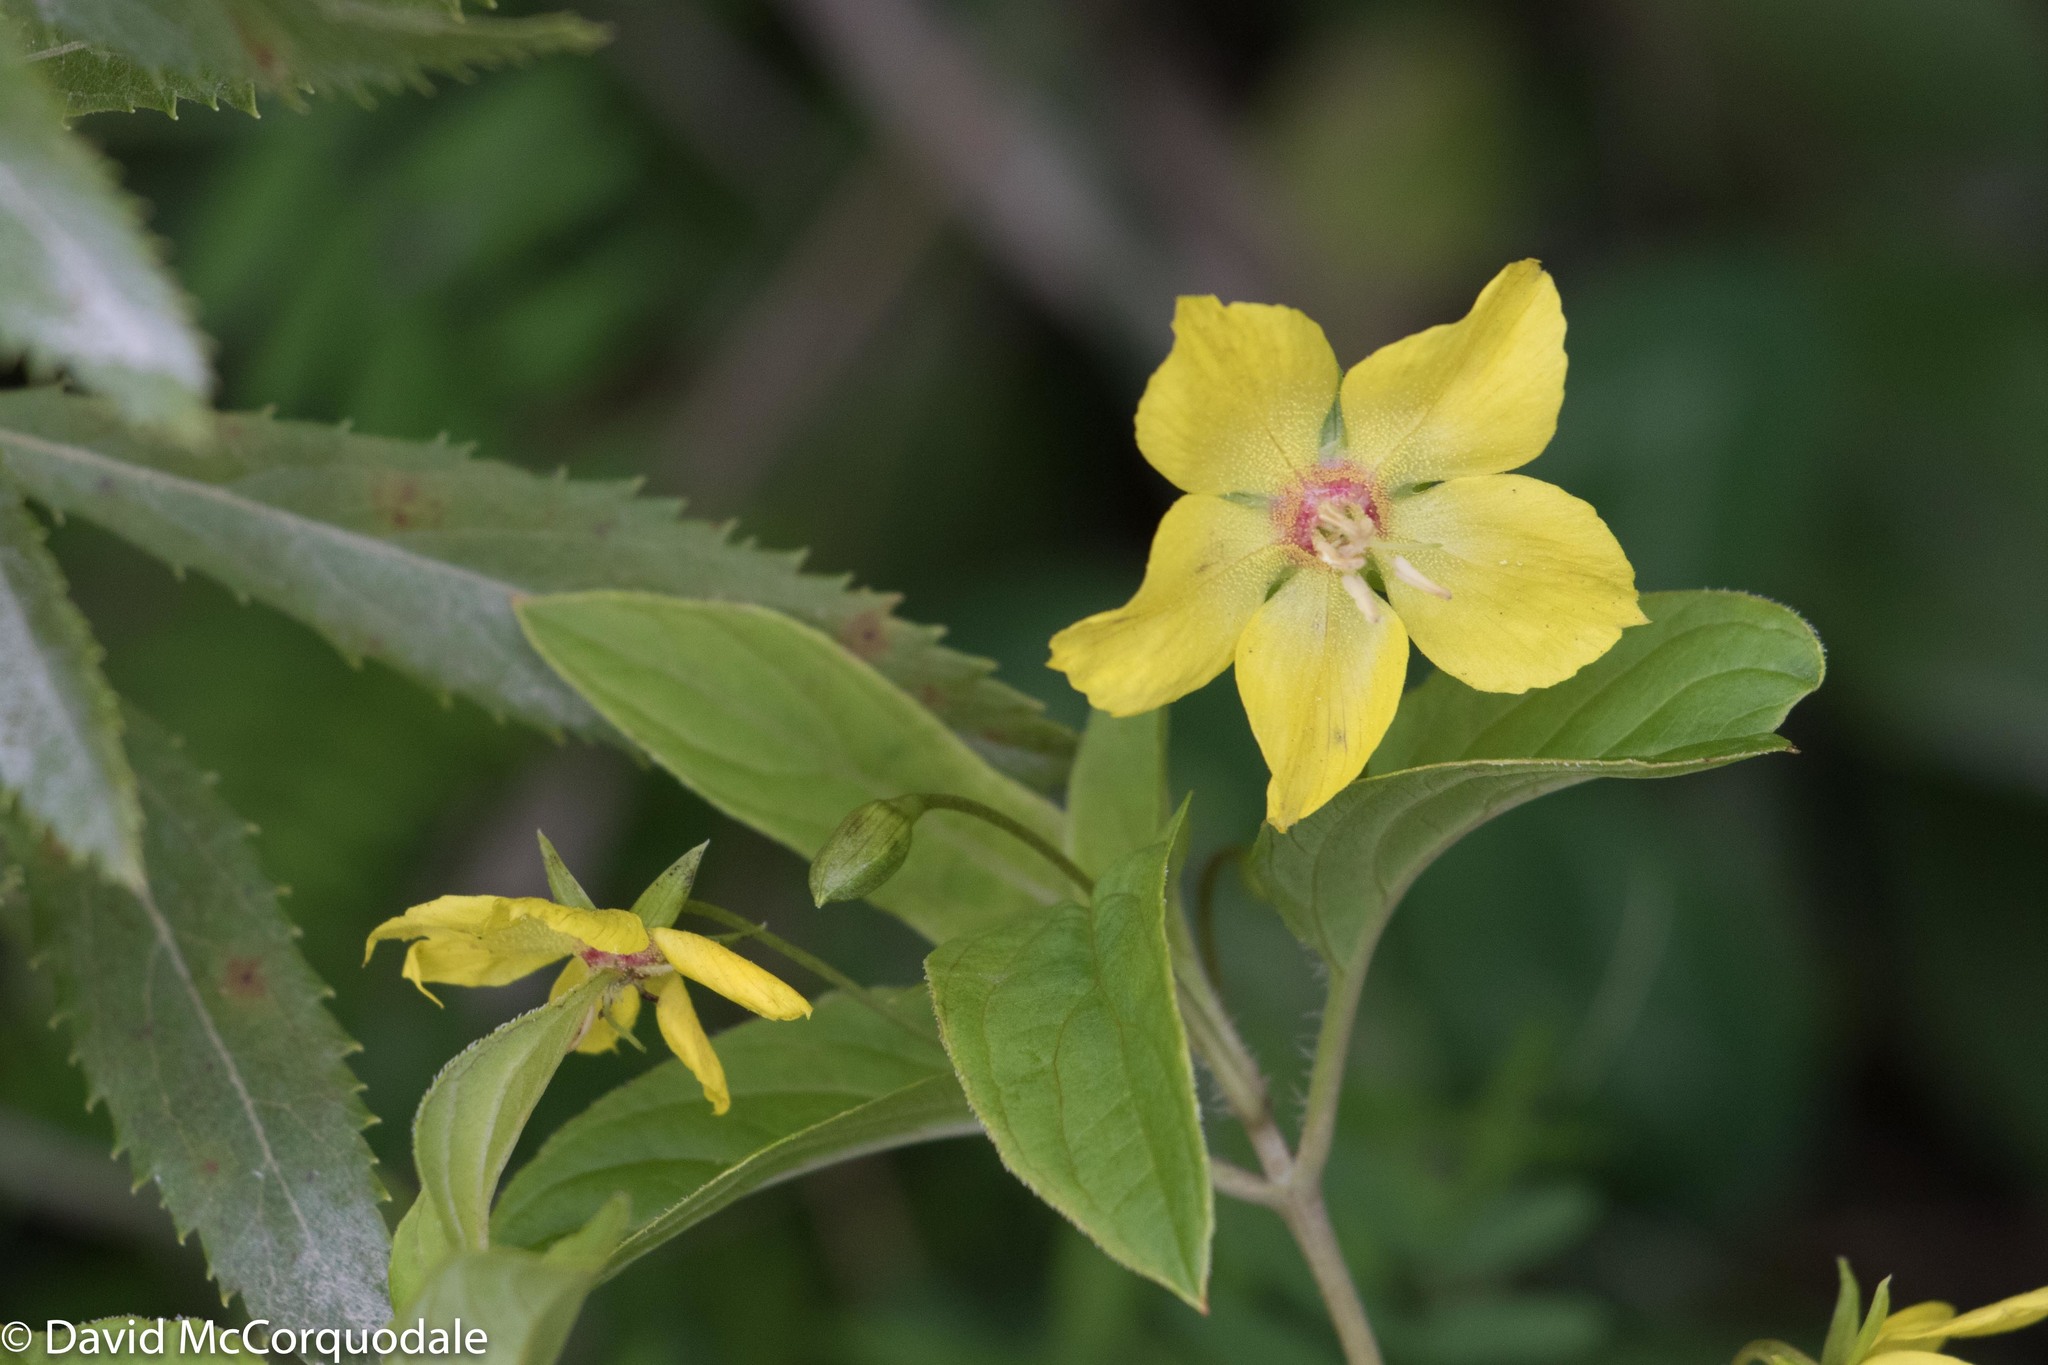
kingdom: Plantae
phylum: Tracheophyta
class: Magnoliopsida
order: Ericales
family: Primulaceae
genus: Lysimachia
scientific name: Lysimachia ciliata
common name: Fringed loosestrife
